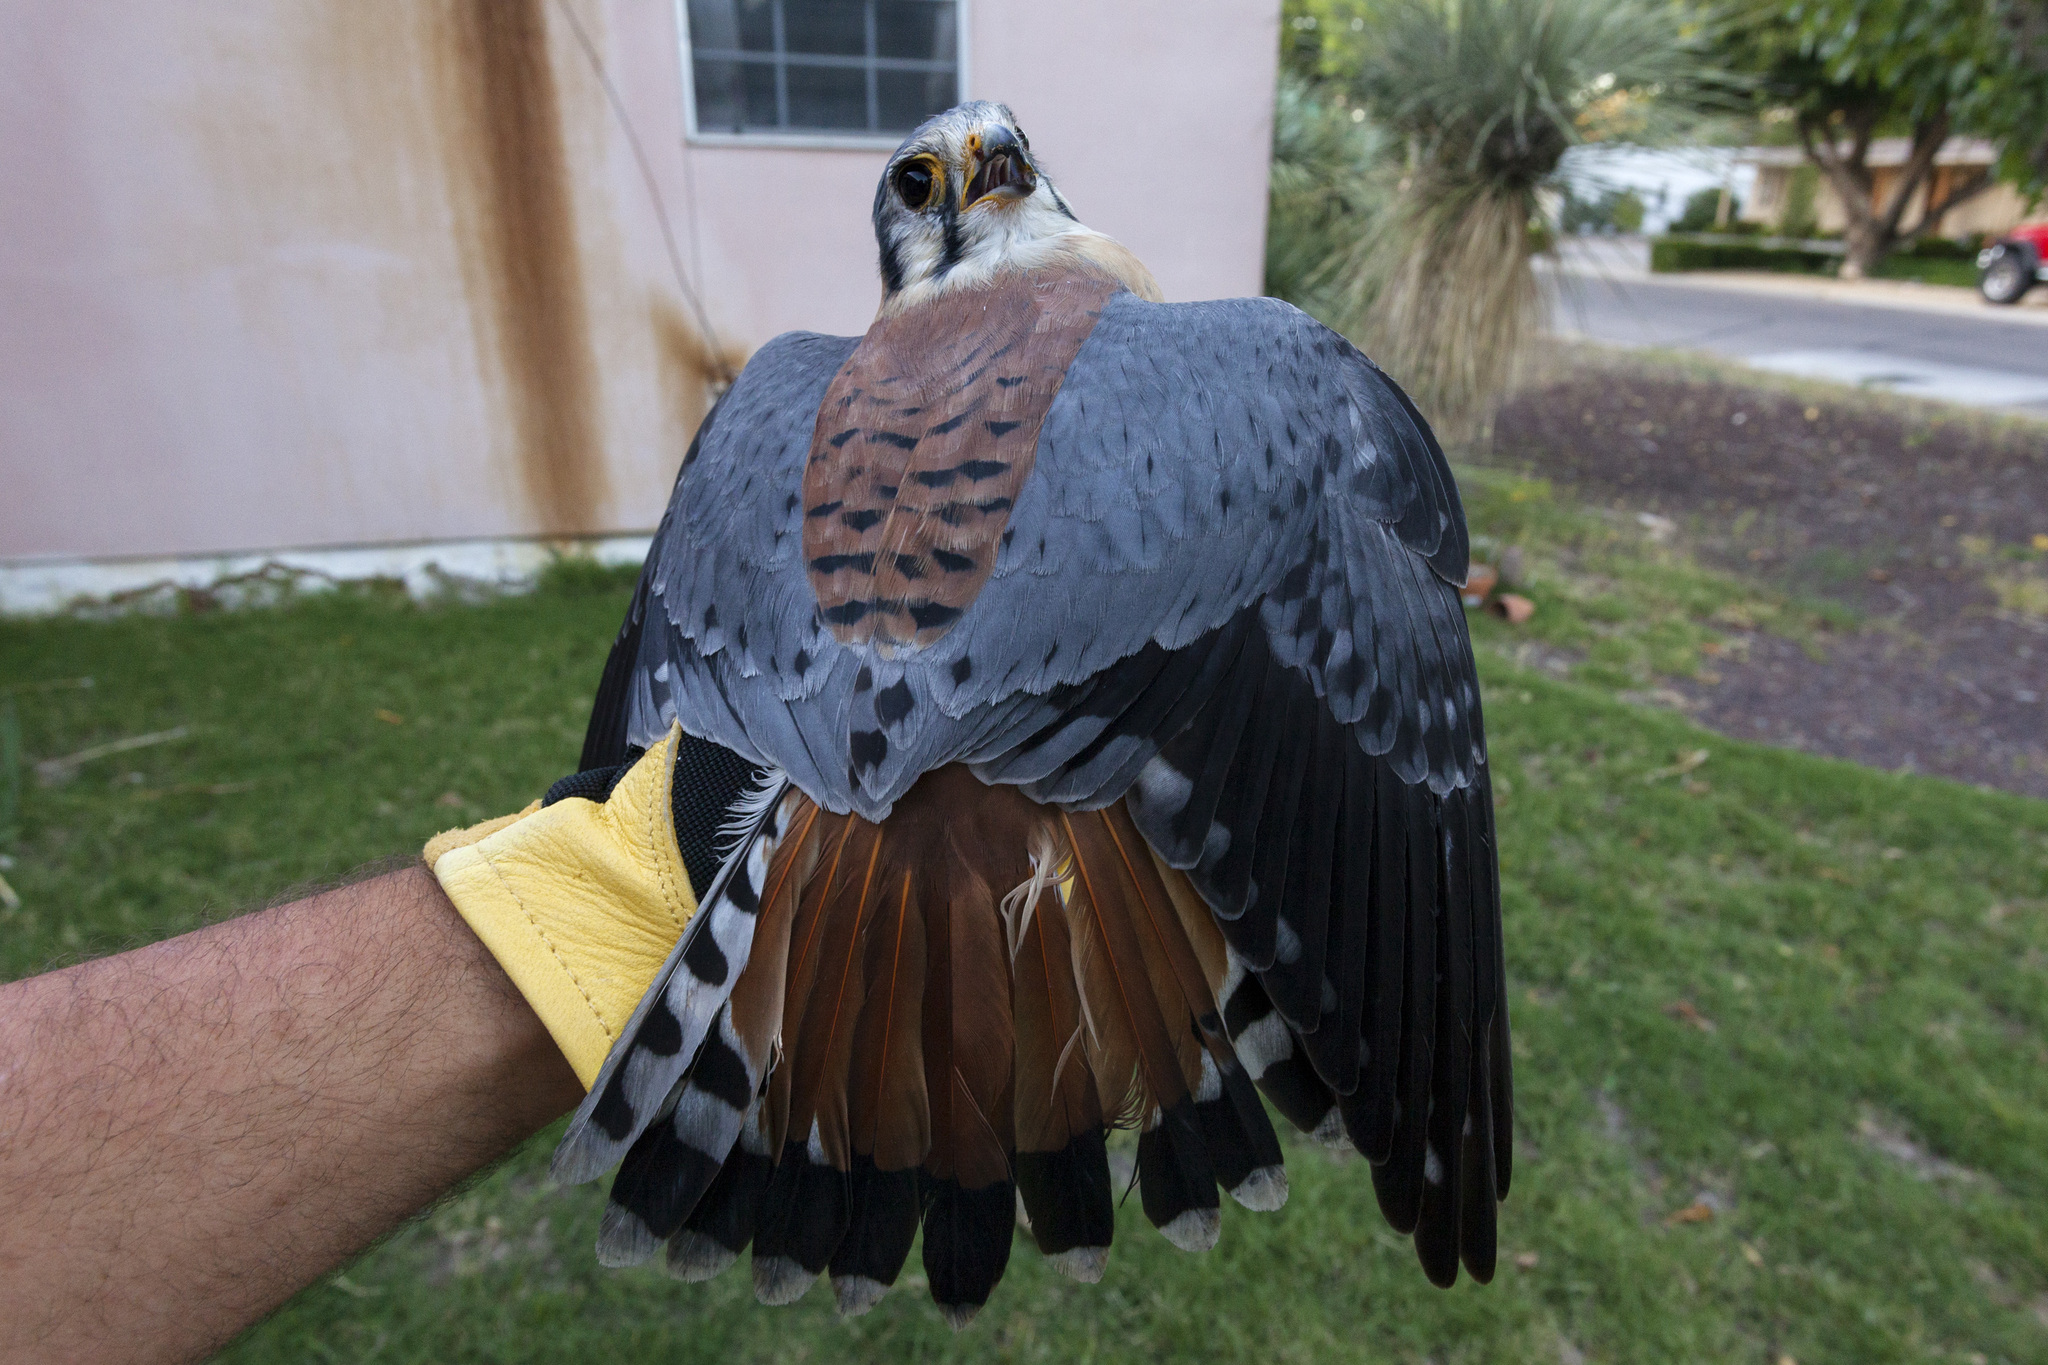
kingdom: Animalia
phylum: Chordata
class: Aves
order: Falconiformes
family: Falconidae
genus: Falco
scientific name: Falco sparverius
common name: American kestrel
